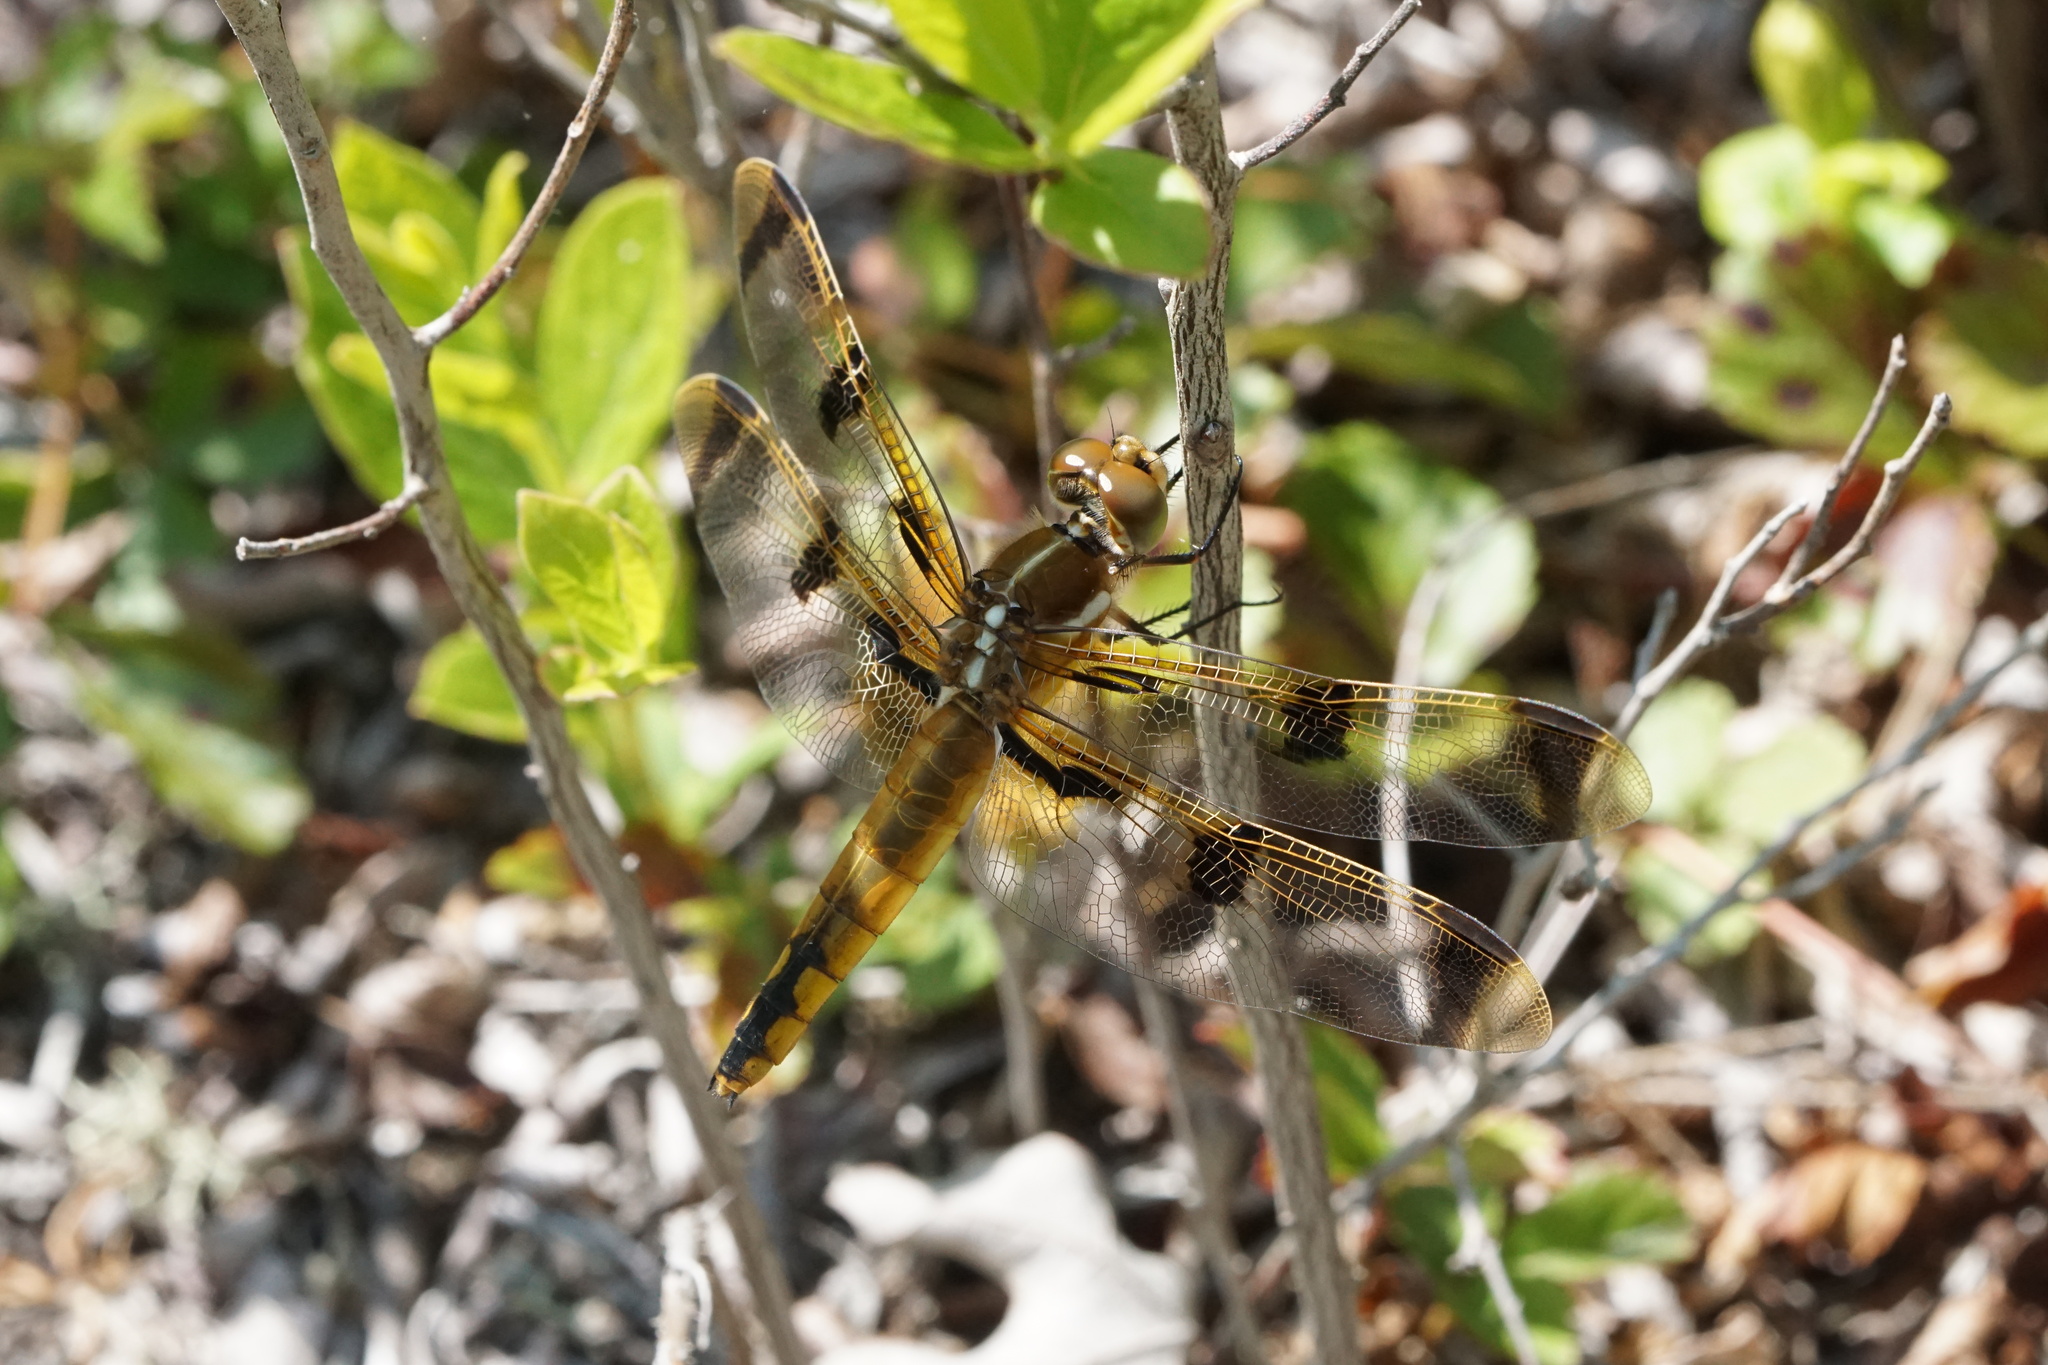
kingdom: Animalia
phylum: Arthropoda
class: Insecta
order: Odonata
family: Libellulidae
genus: Libellula
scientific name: Libellula semifasciata
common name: Painted skimmer
